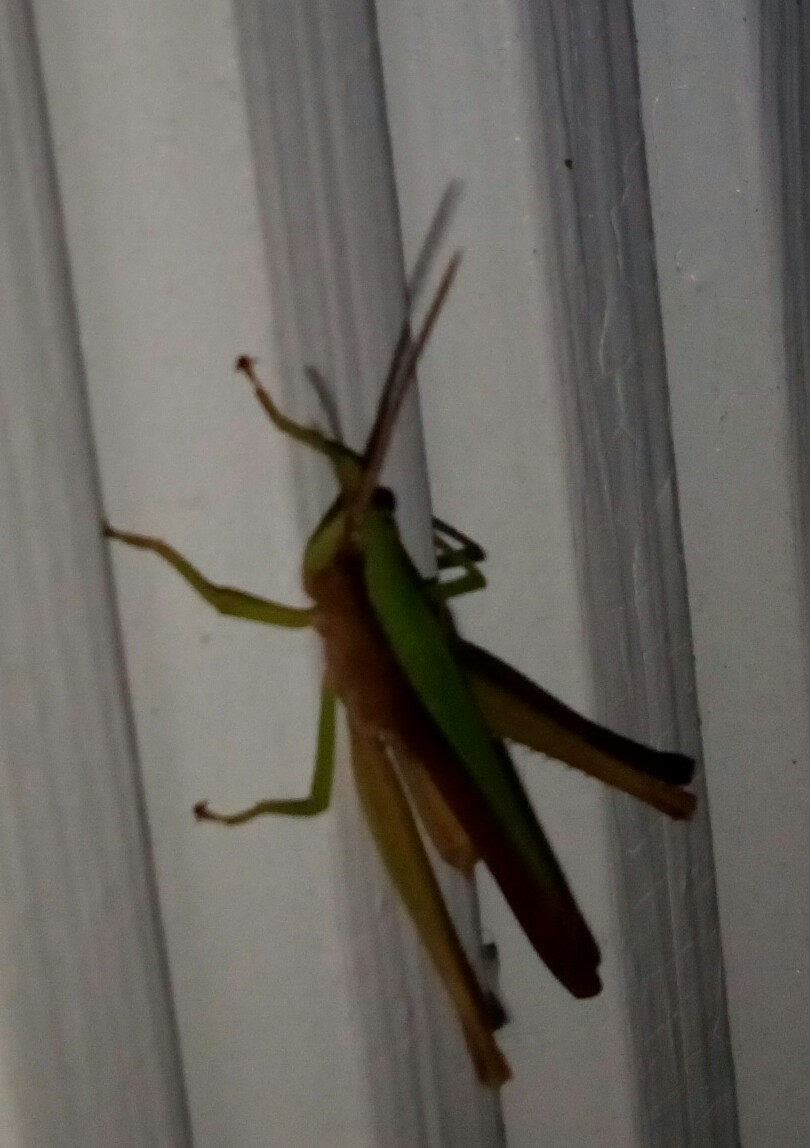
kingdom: Animalia
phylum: Arthropoda
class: Insecta
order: Orthoptera
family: Acrididae
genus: Metaleptea
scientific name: Metaleptea brevicornis
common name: Clipped-wing grasshopper
